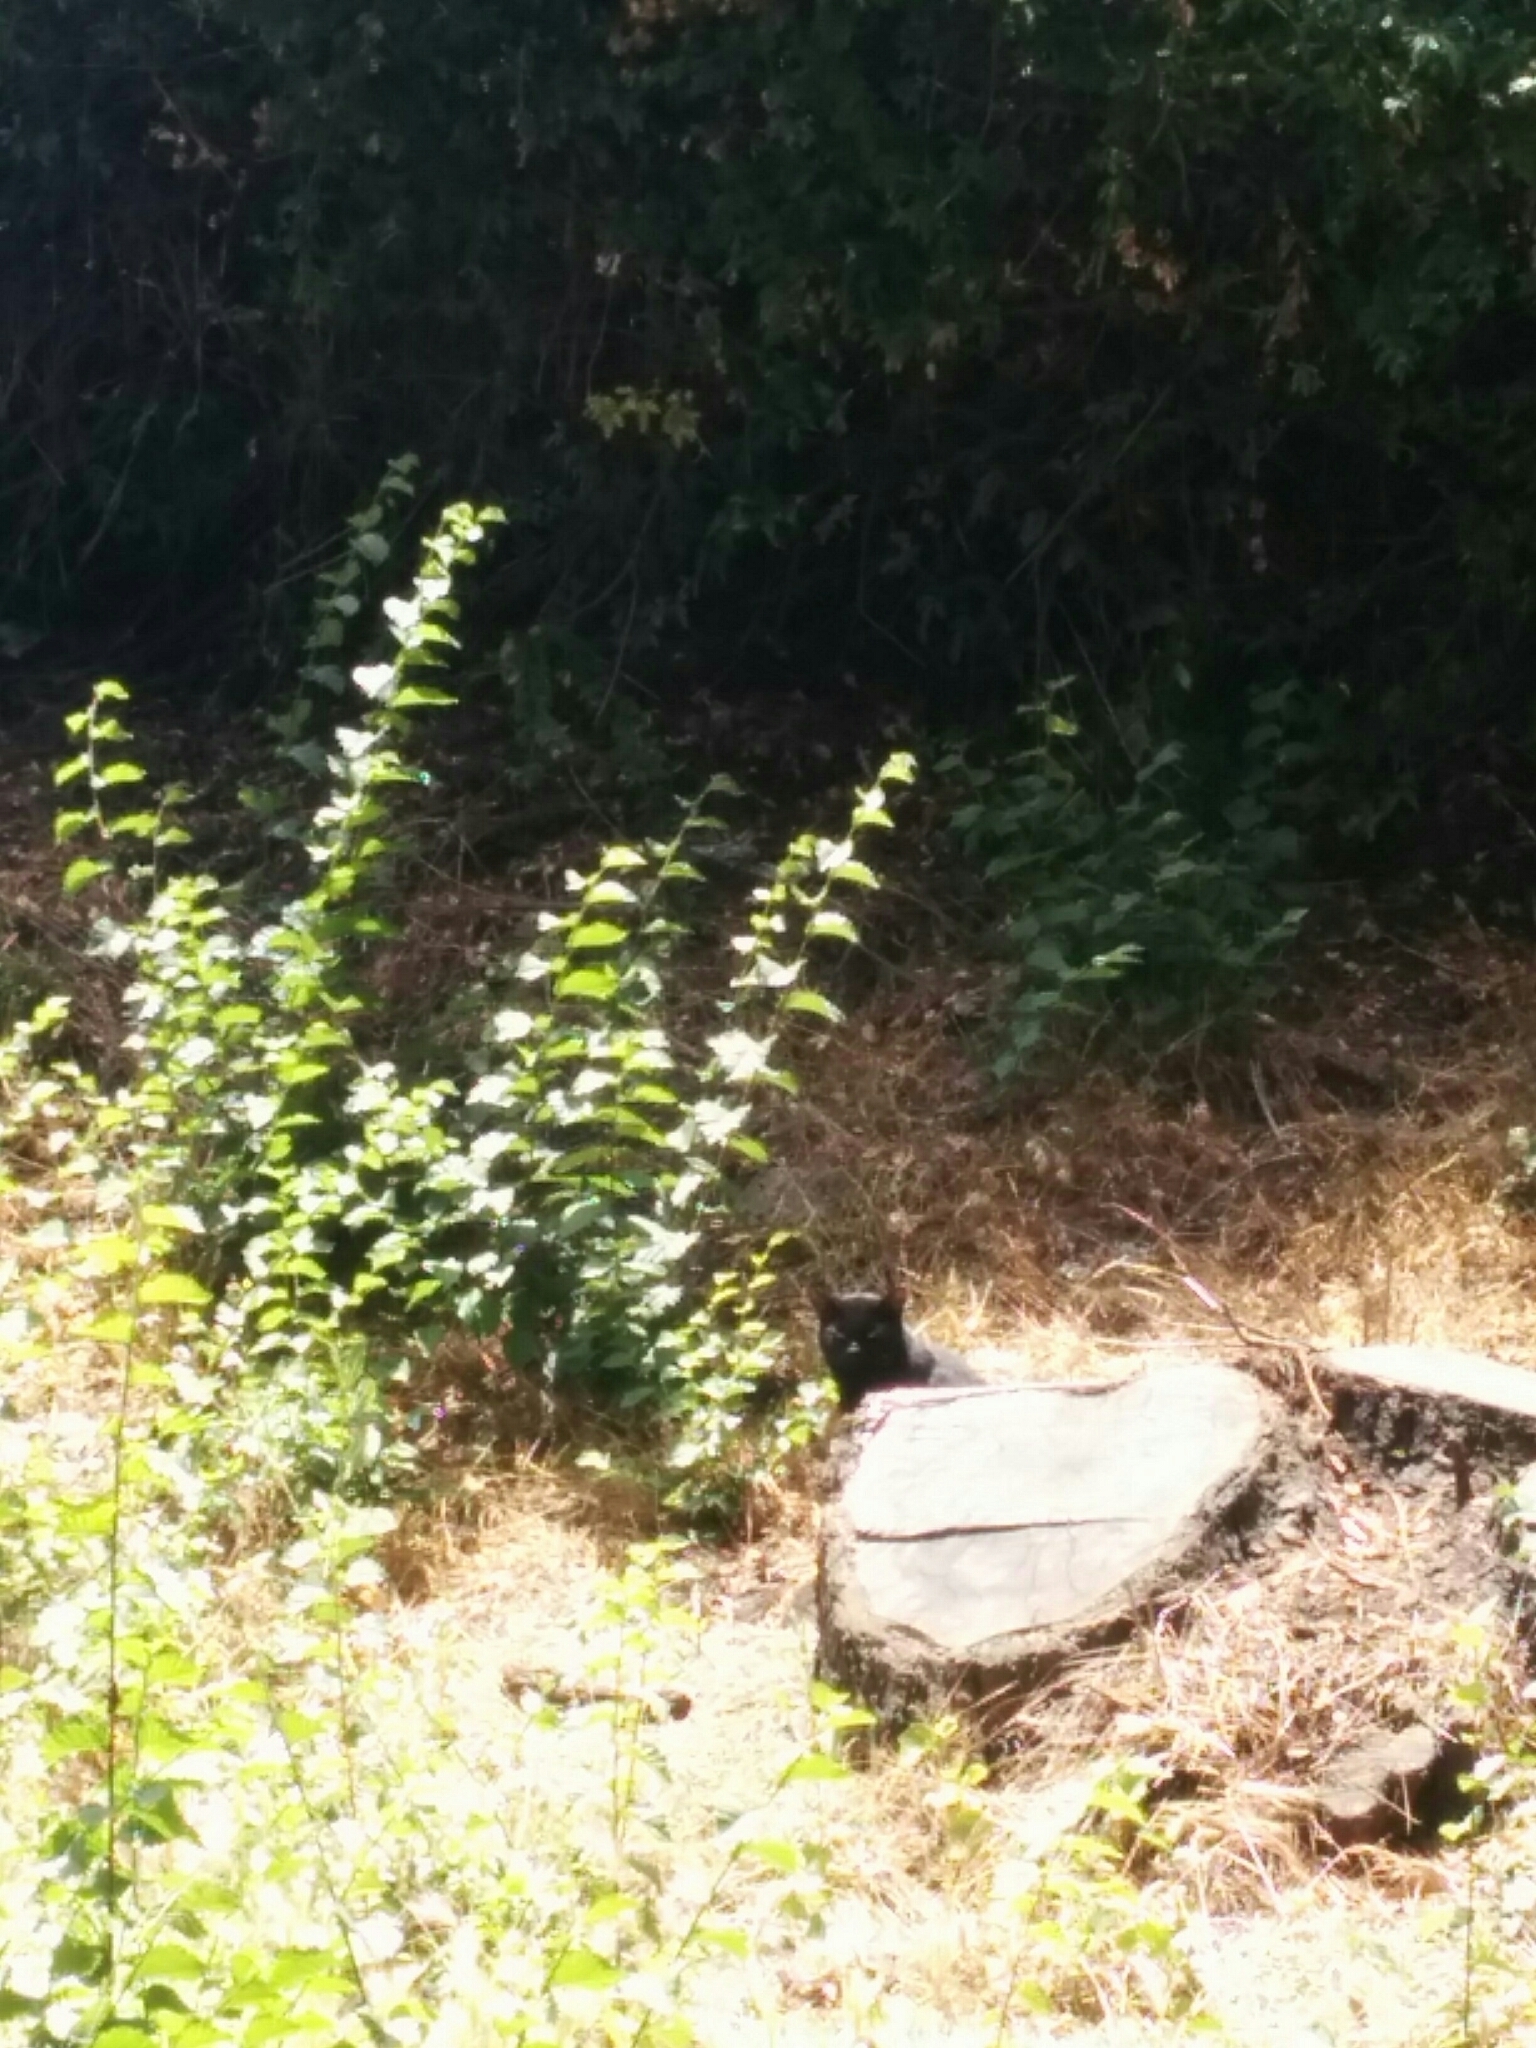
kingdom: Animalia
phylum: Chordata
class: Mammalia
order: Carnivora
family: Felidae
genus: Felis
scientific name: Felis catus
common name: Domestic cat
